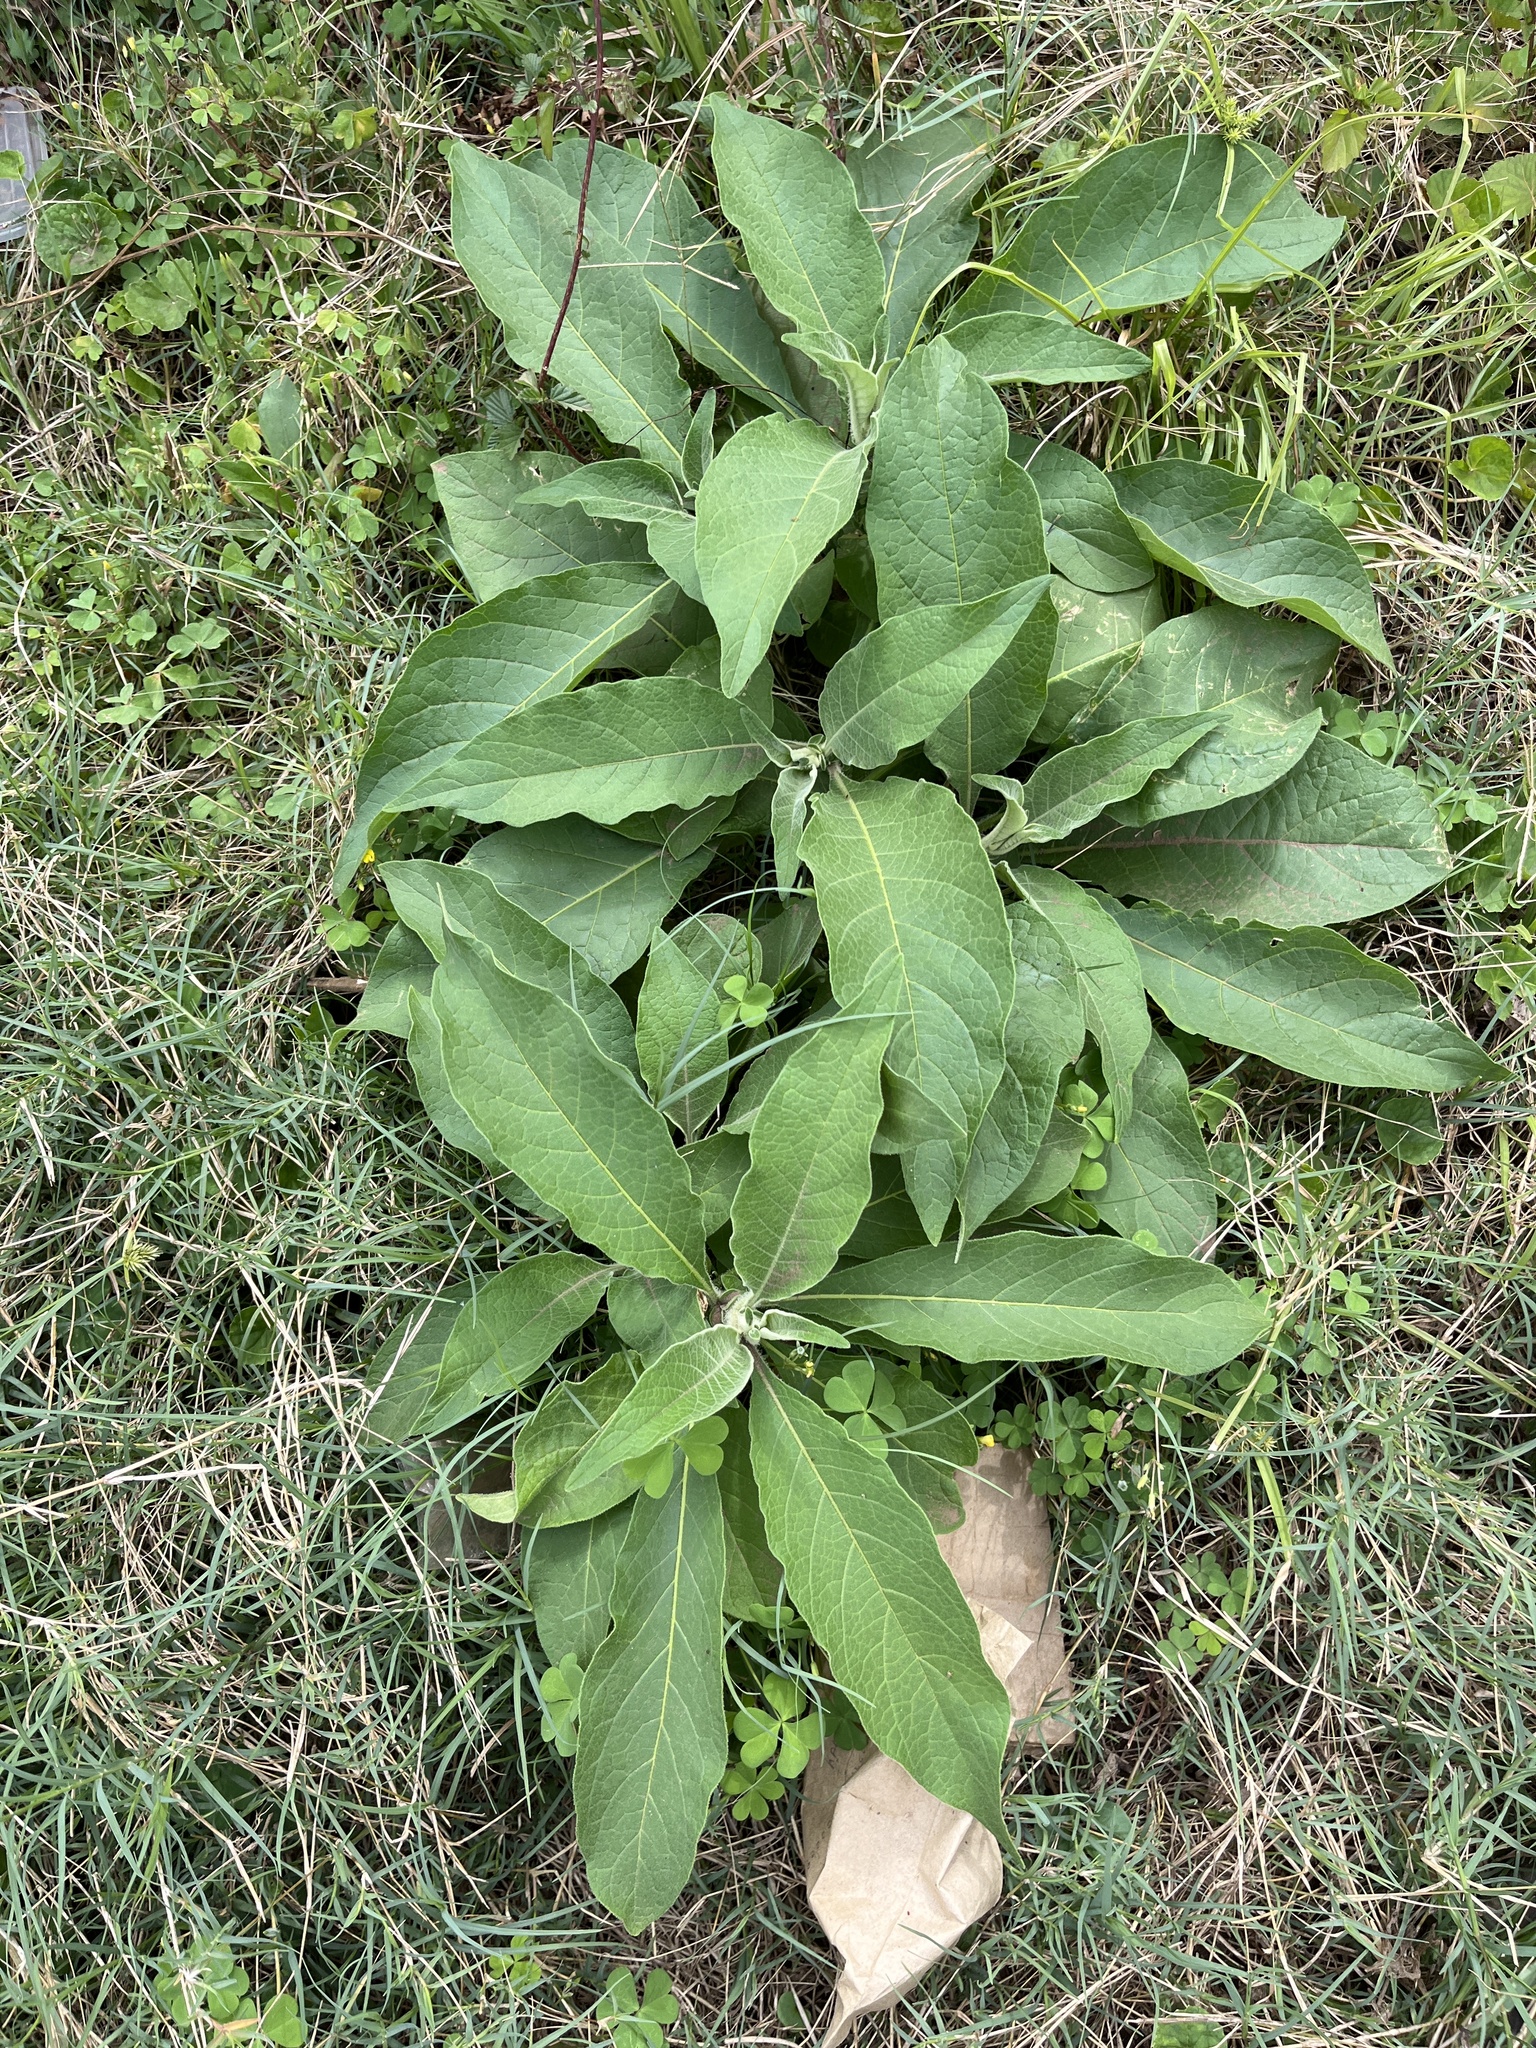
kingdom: Plantae
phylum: Tracheophyta
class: Magnoliopsida
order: Solanales
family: Solanaceae
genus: Solanum
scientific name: Solanum mauritianum
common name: Earleaf nightshade
